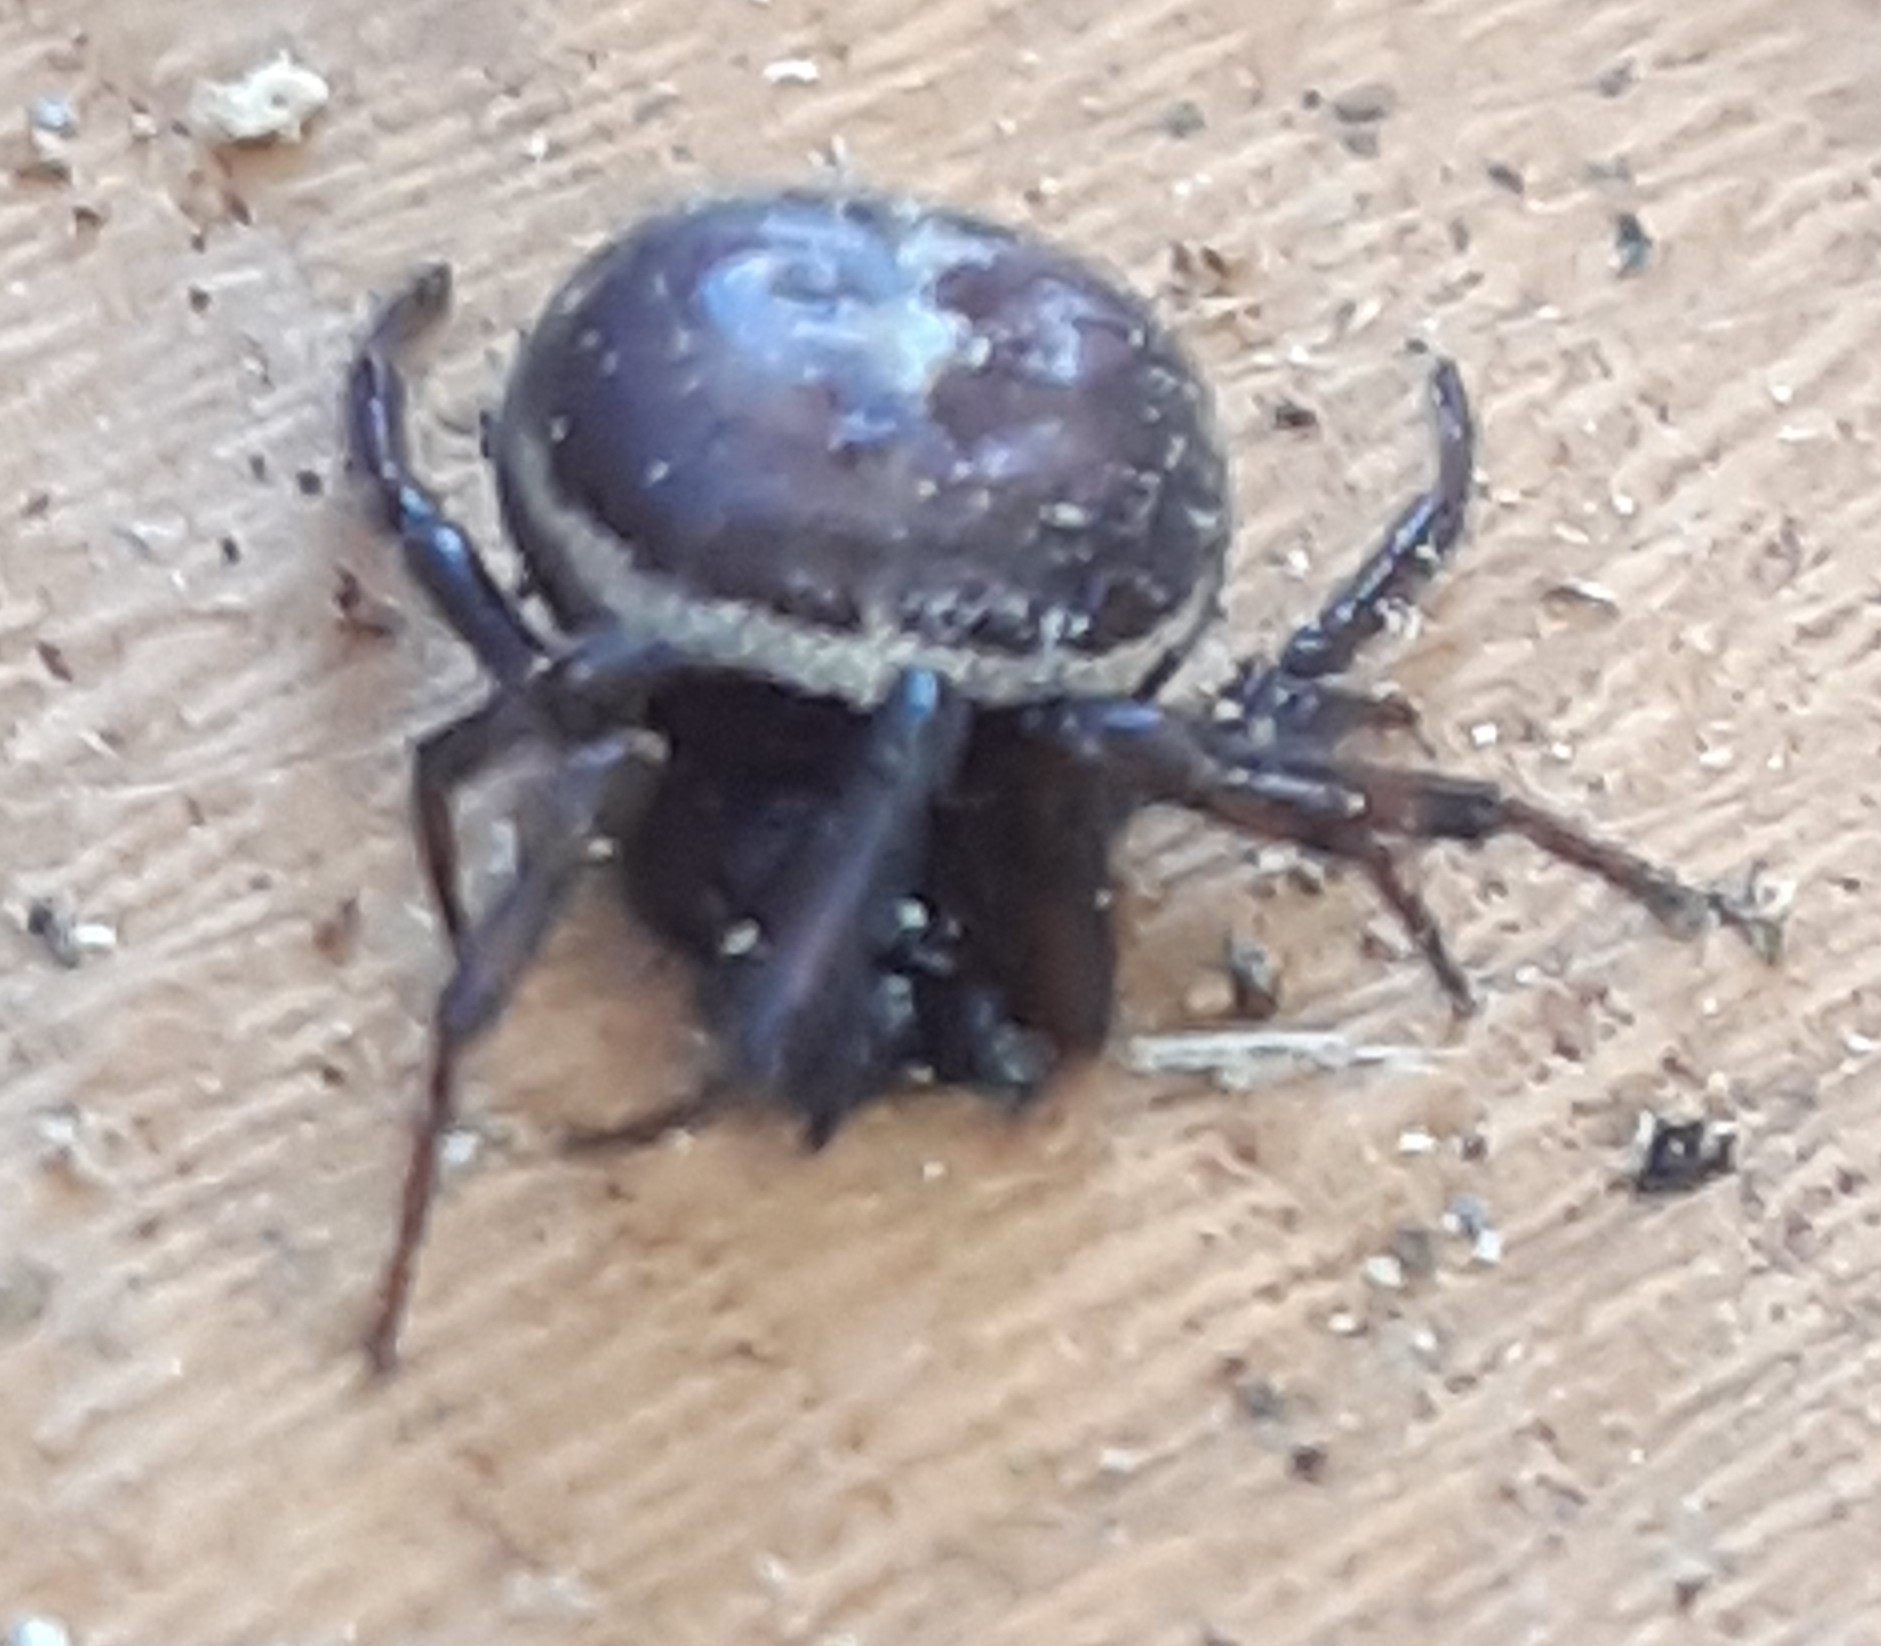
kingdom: Animalia
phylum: Arthropoda
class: Arachnida
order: Araneae
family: Theridiidae
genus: Steatoda
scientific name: Steatoda bipunctata
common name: False widow
